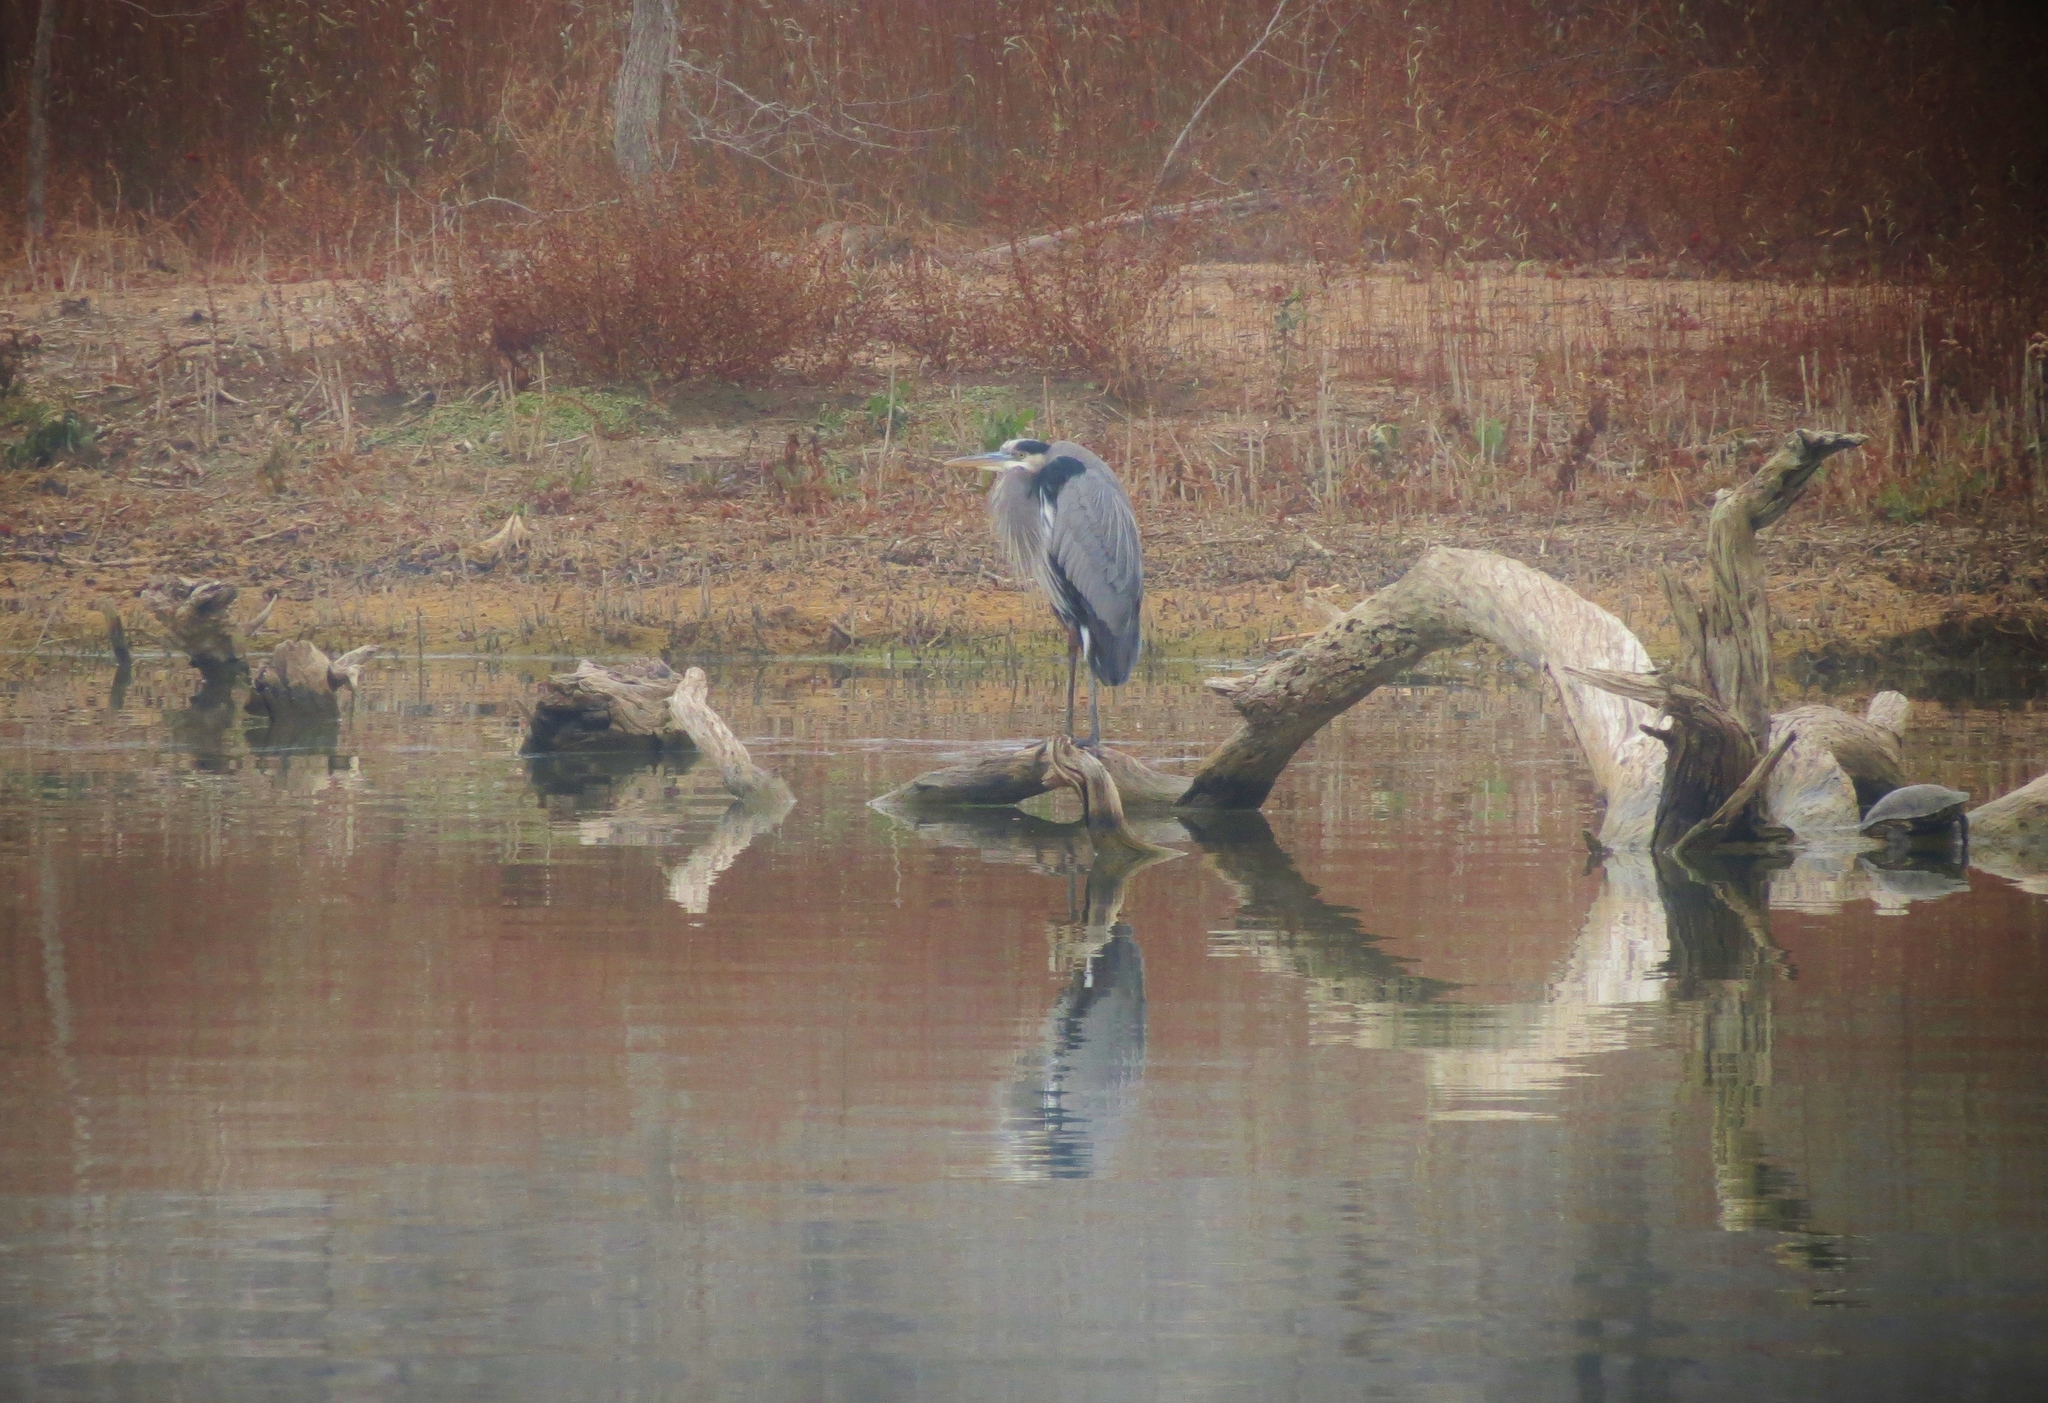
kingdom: Animalia
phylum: Chordata
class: Aves
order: Pelecaniformes
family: Ardeidae
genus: Ardea
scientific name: Ardea herodias
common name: Great blue heron
